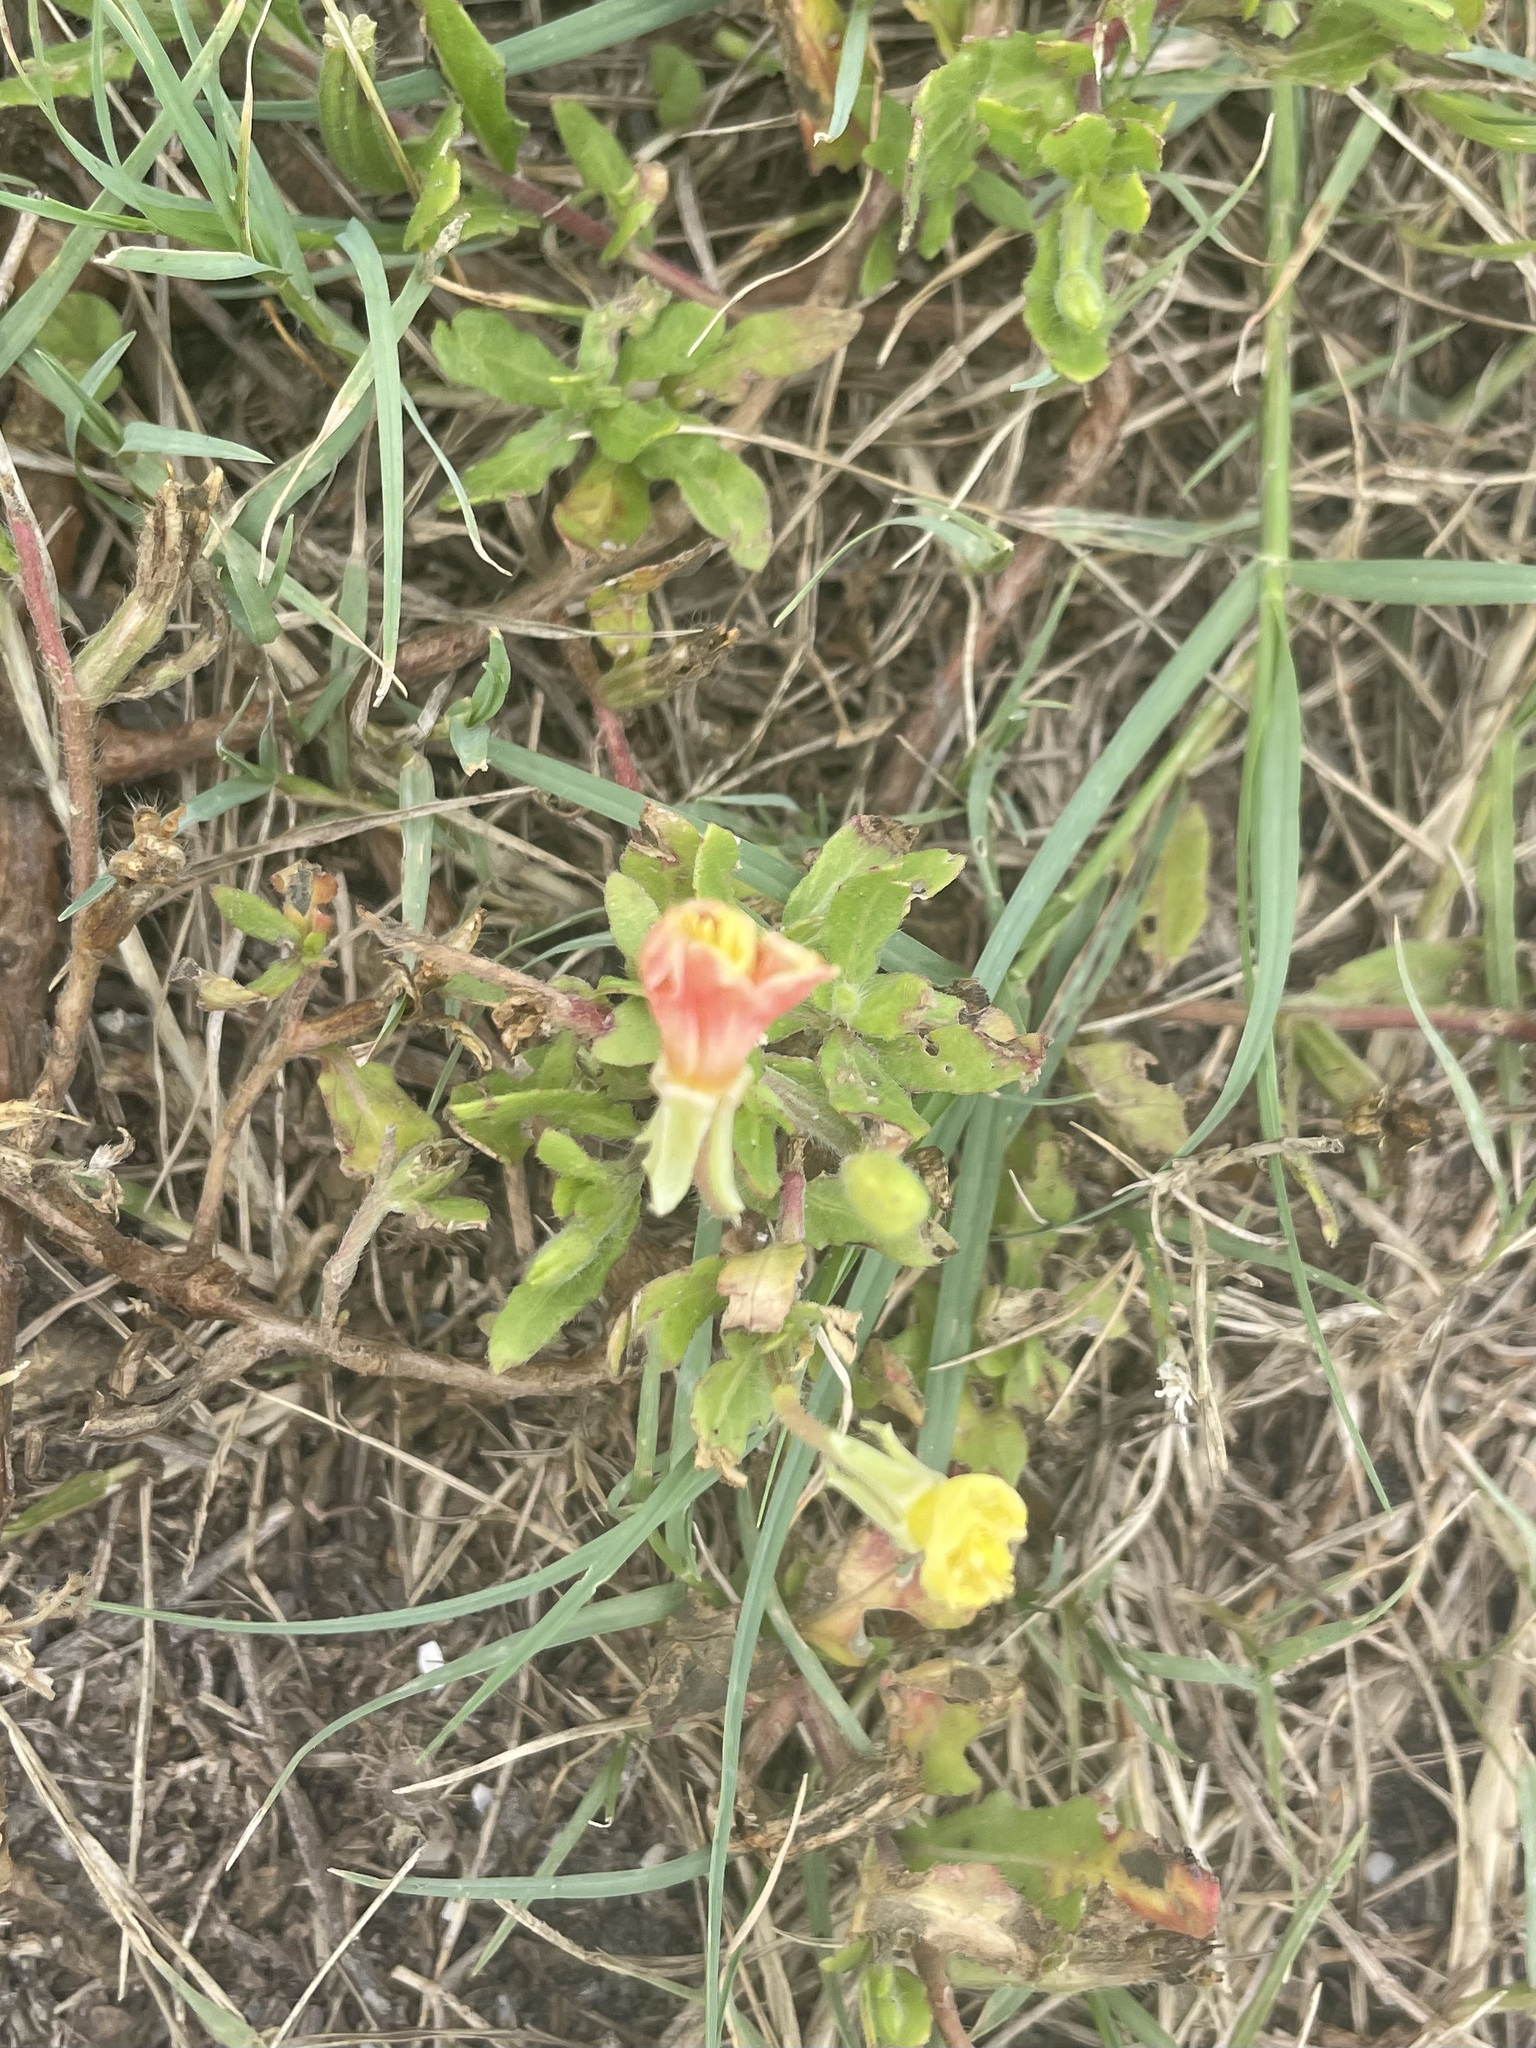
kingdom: Plantae
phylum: Tracheophyta
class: Magnoliopsida
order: Myrtales
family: Onagraceae
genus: Oenothera
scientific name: Oenothera laciniata
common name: Cut-leaved evening-primrose
